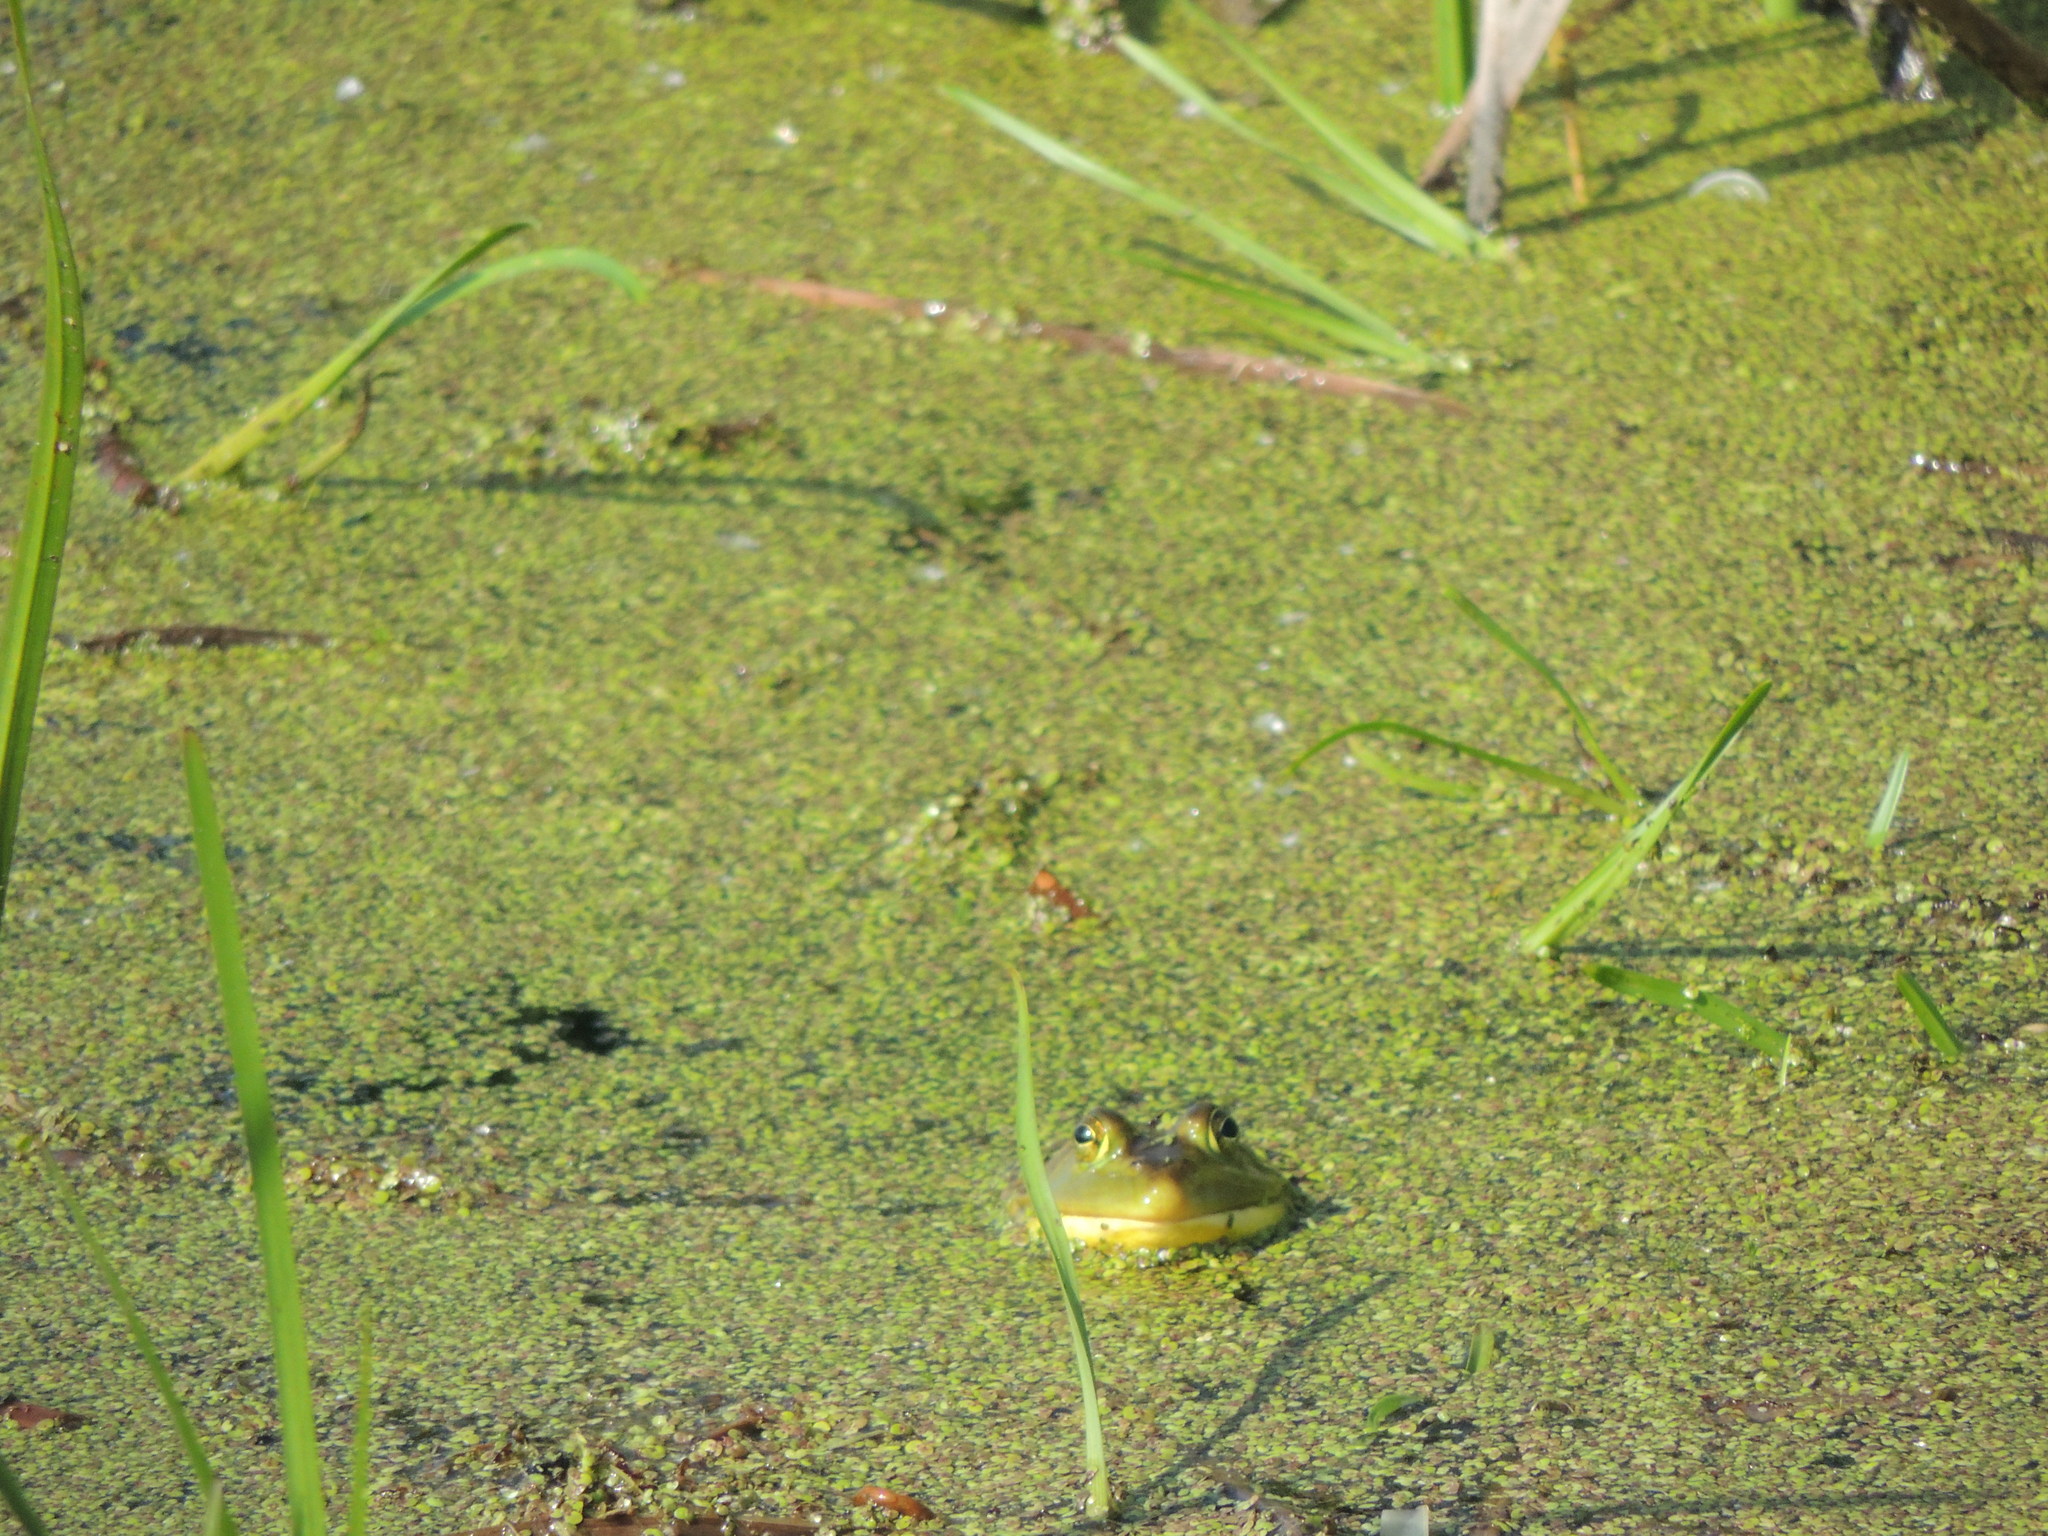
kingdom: Animalia
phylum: Chordata
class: Amphibia
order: Anura
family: Ranidae
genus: Lithobates
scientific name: Lithobates catesbeianus
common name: American bullfrog
